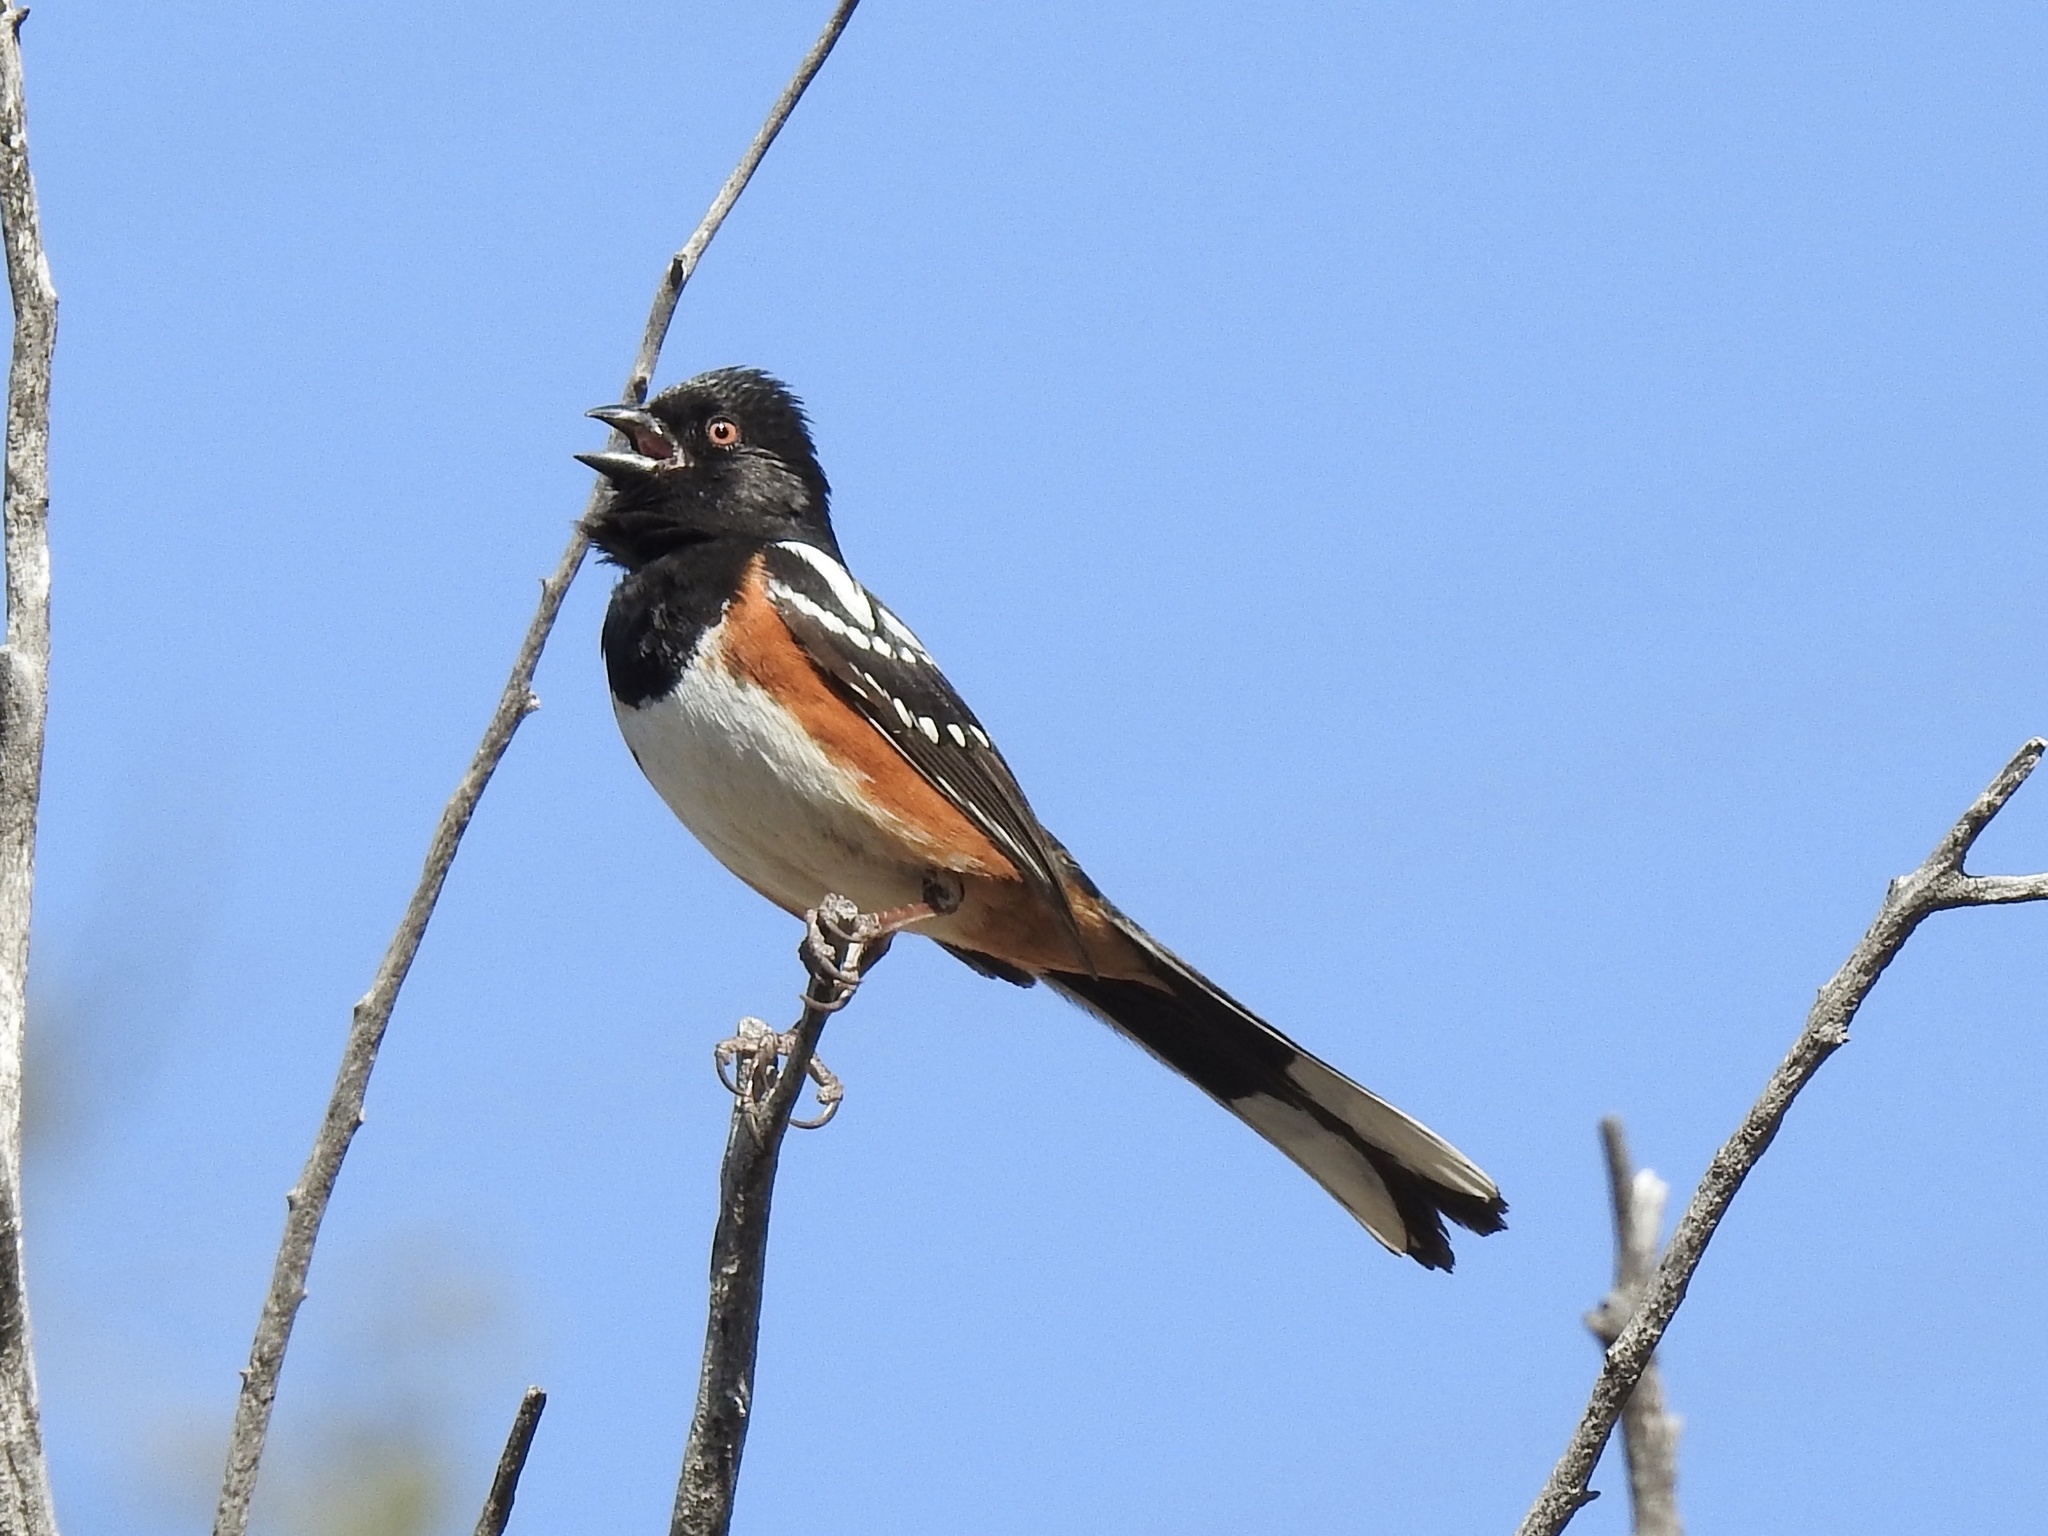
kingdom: Animalia
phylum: Chordata
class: Aves
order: Passeriformes
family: Passerellidae
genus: Pipilo
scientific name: Pipilo maculatus
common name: Spotted towhee
